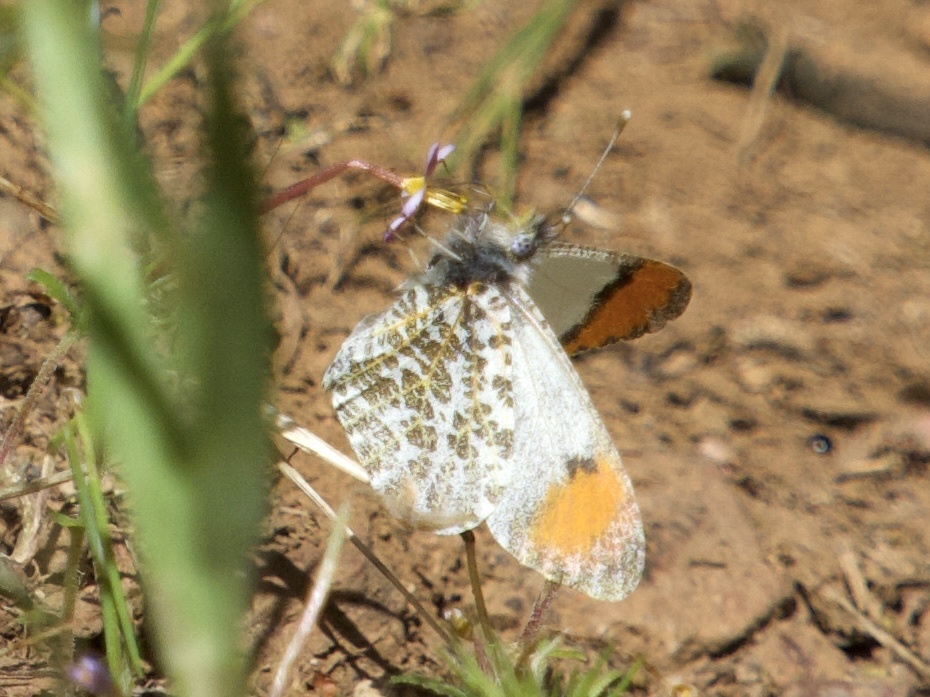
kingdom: Animalia
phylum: Arthropoda
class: Insecta
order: Lepidoptera
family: Pieridae
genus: Anthocharis
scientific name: Anthocharis sara
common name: Sara's orangetip
